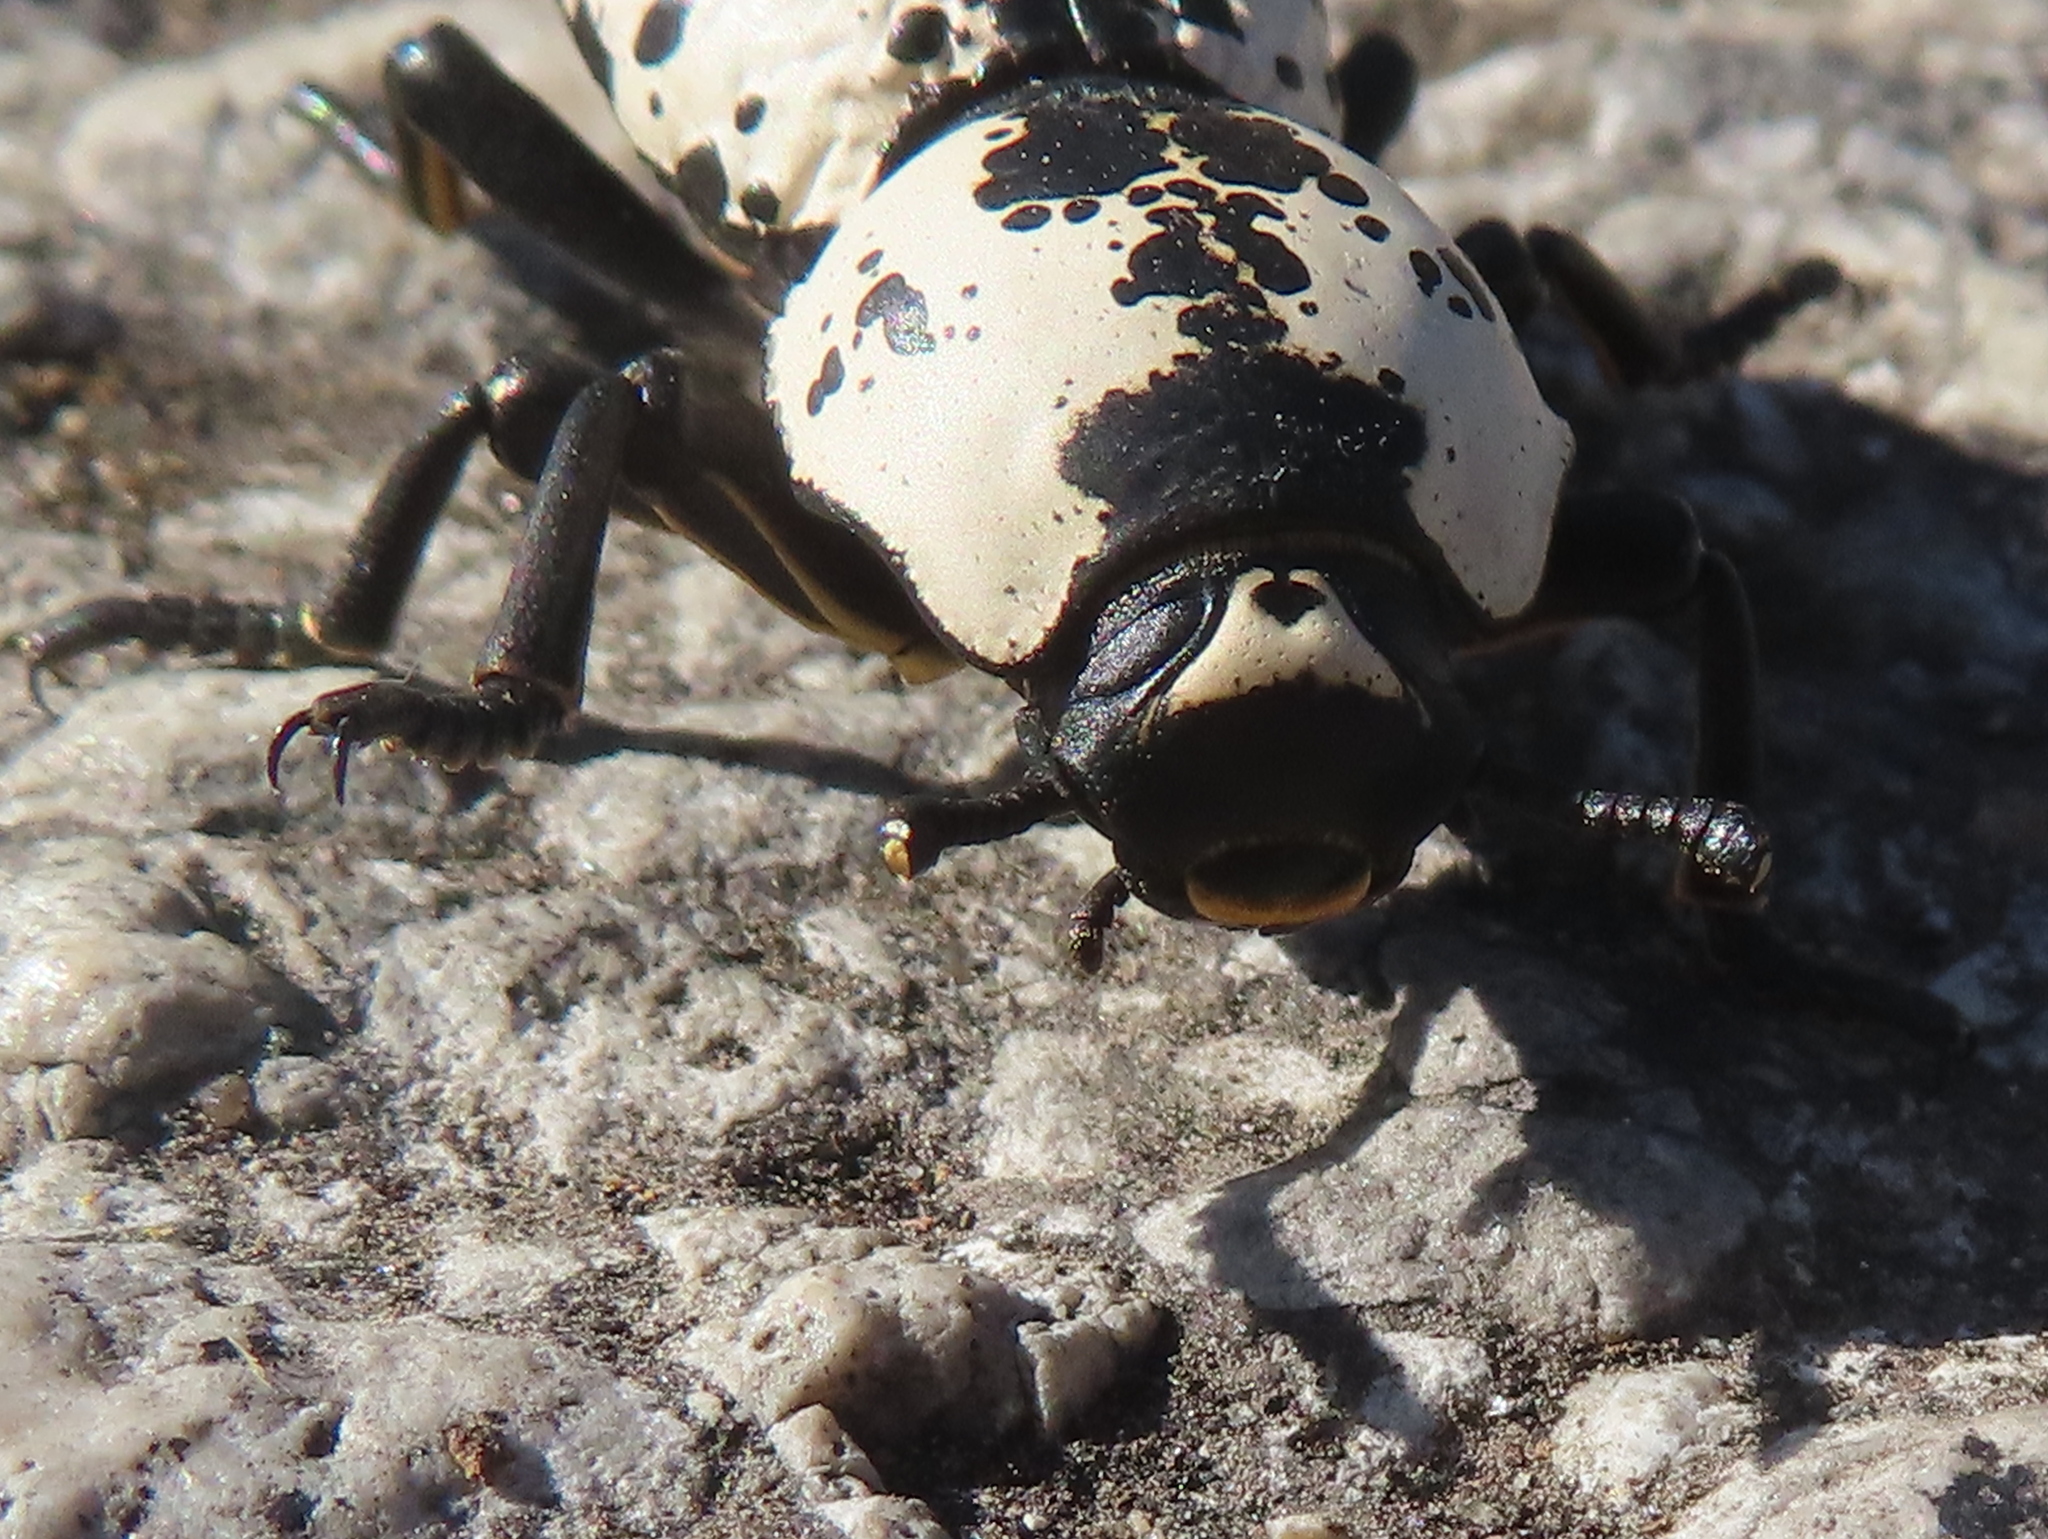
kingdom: Animalia
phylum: Arthropoda
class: Insecta
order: Coleoptera
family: Zopheridae
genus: Zopherus
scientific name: Zopherus nodulosus
